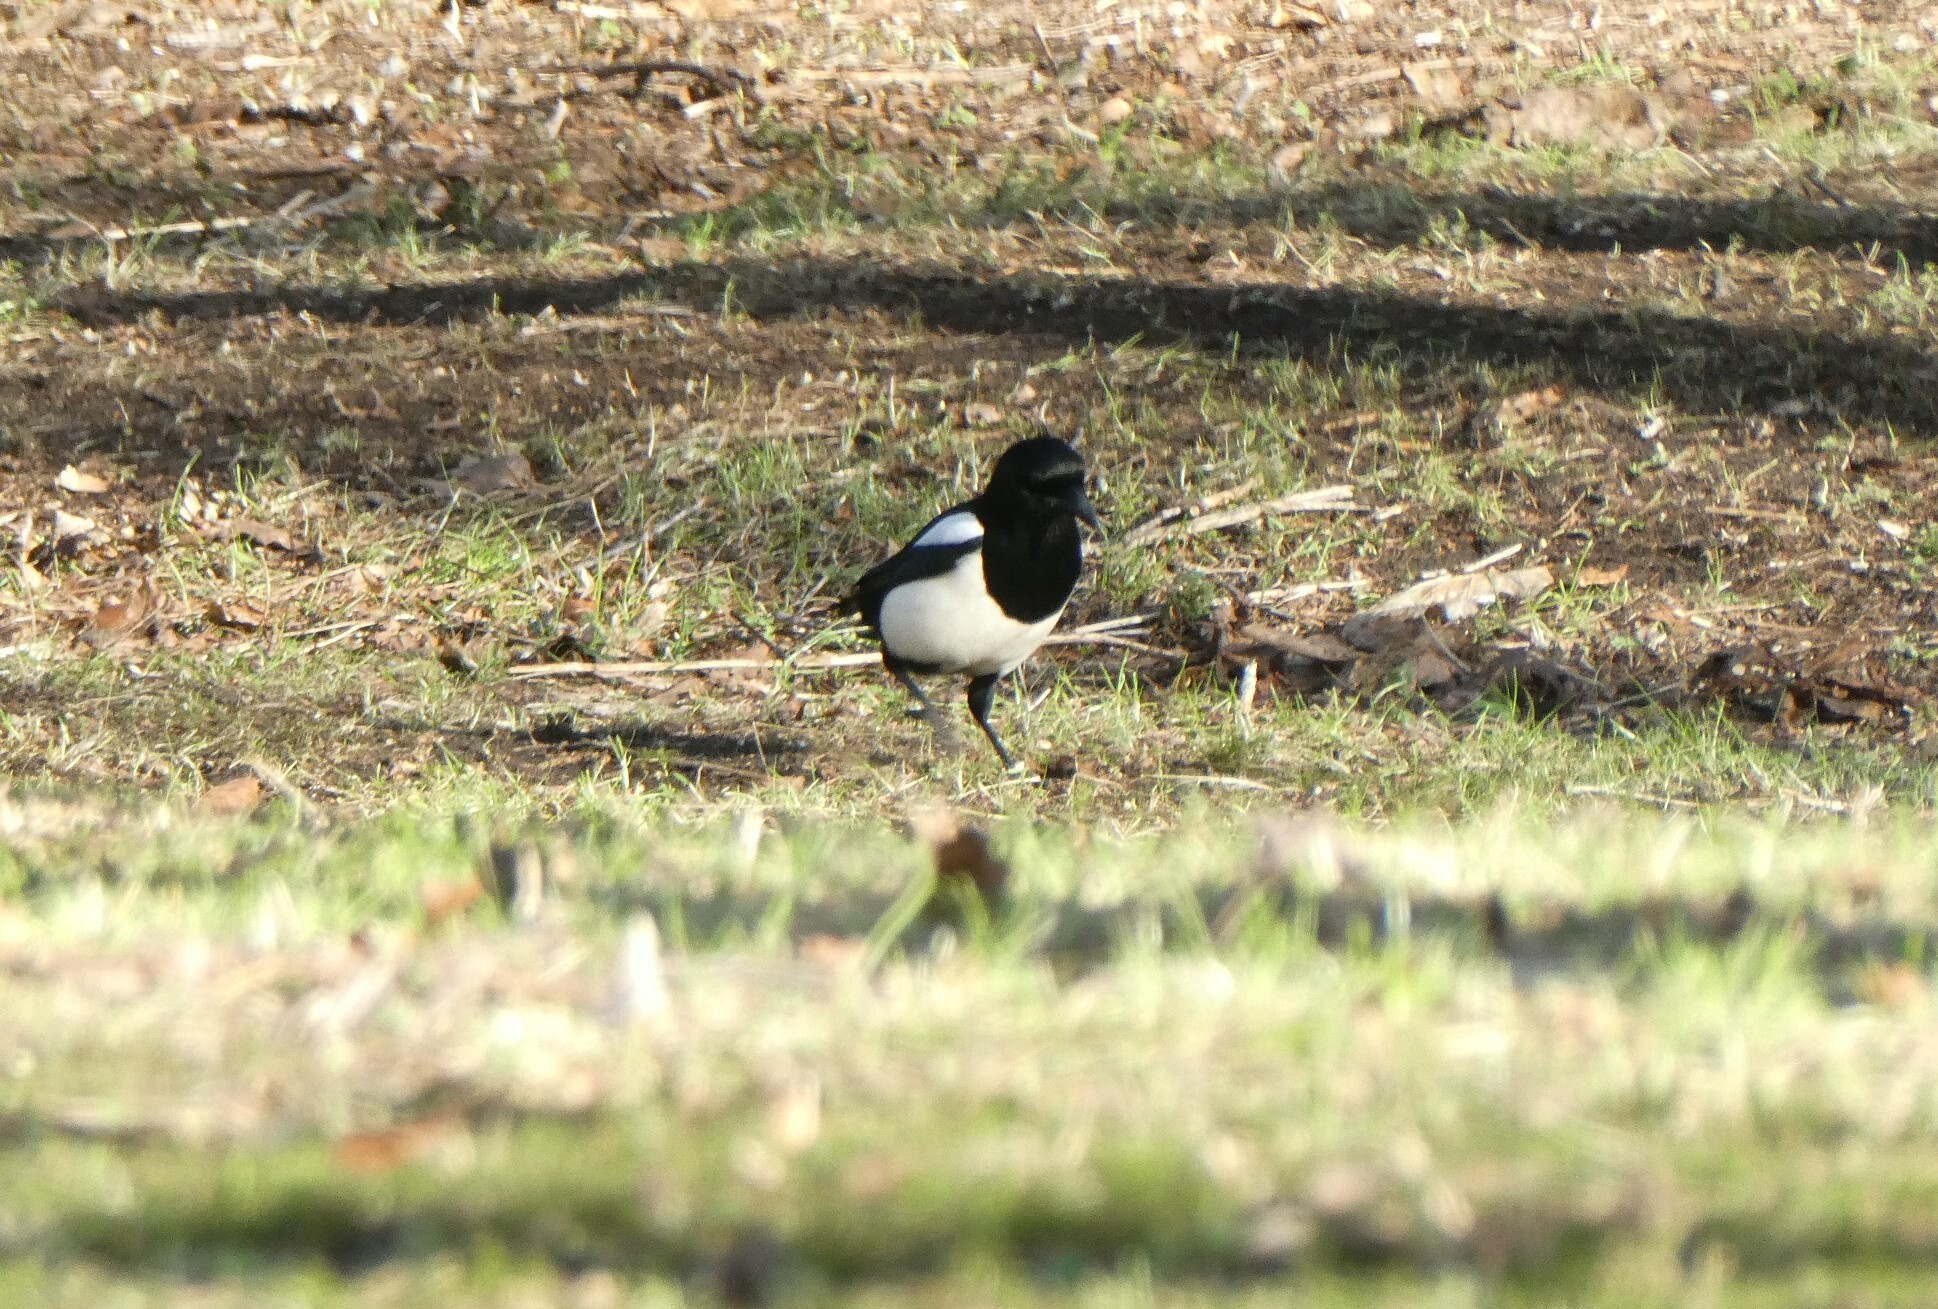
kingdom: Animalia
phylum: Chordata
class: Aves
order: Passeriformes
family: Corvidae
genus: Pica
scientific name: Pica pica
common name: Eurasian magpie
